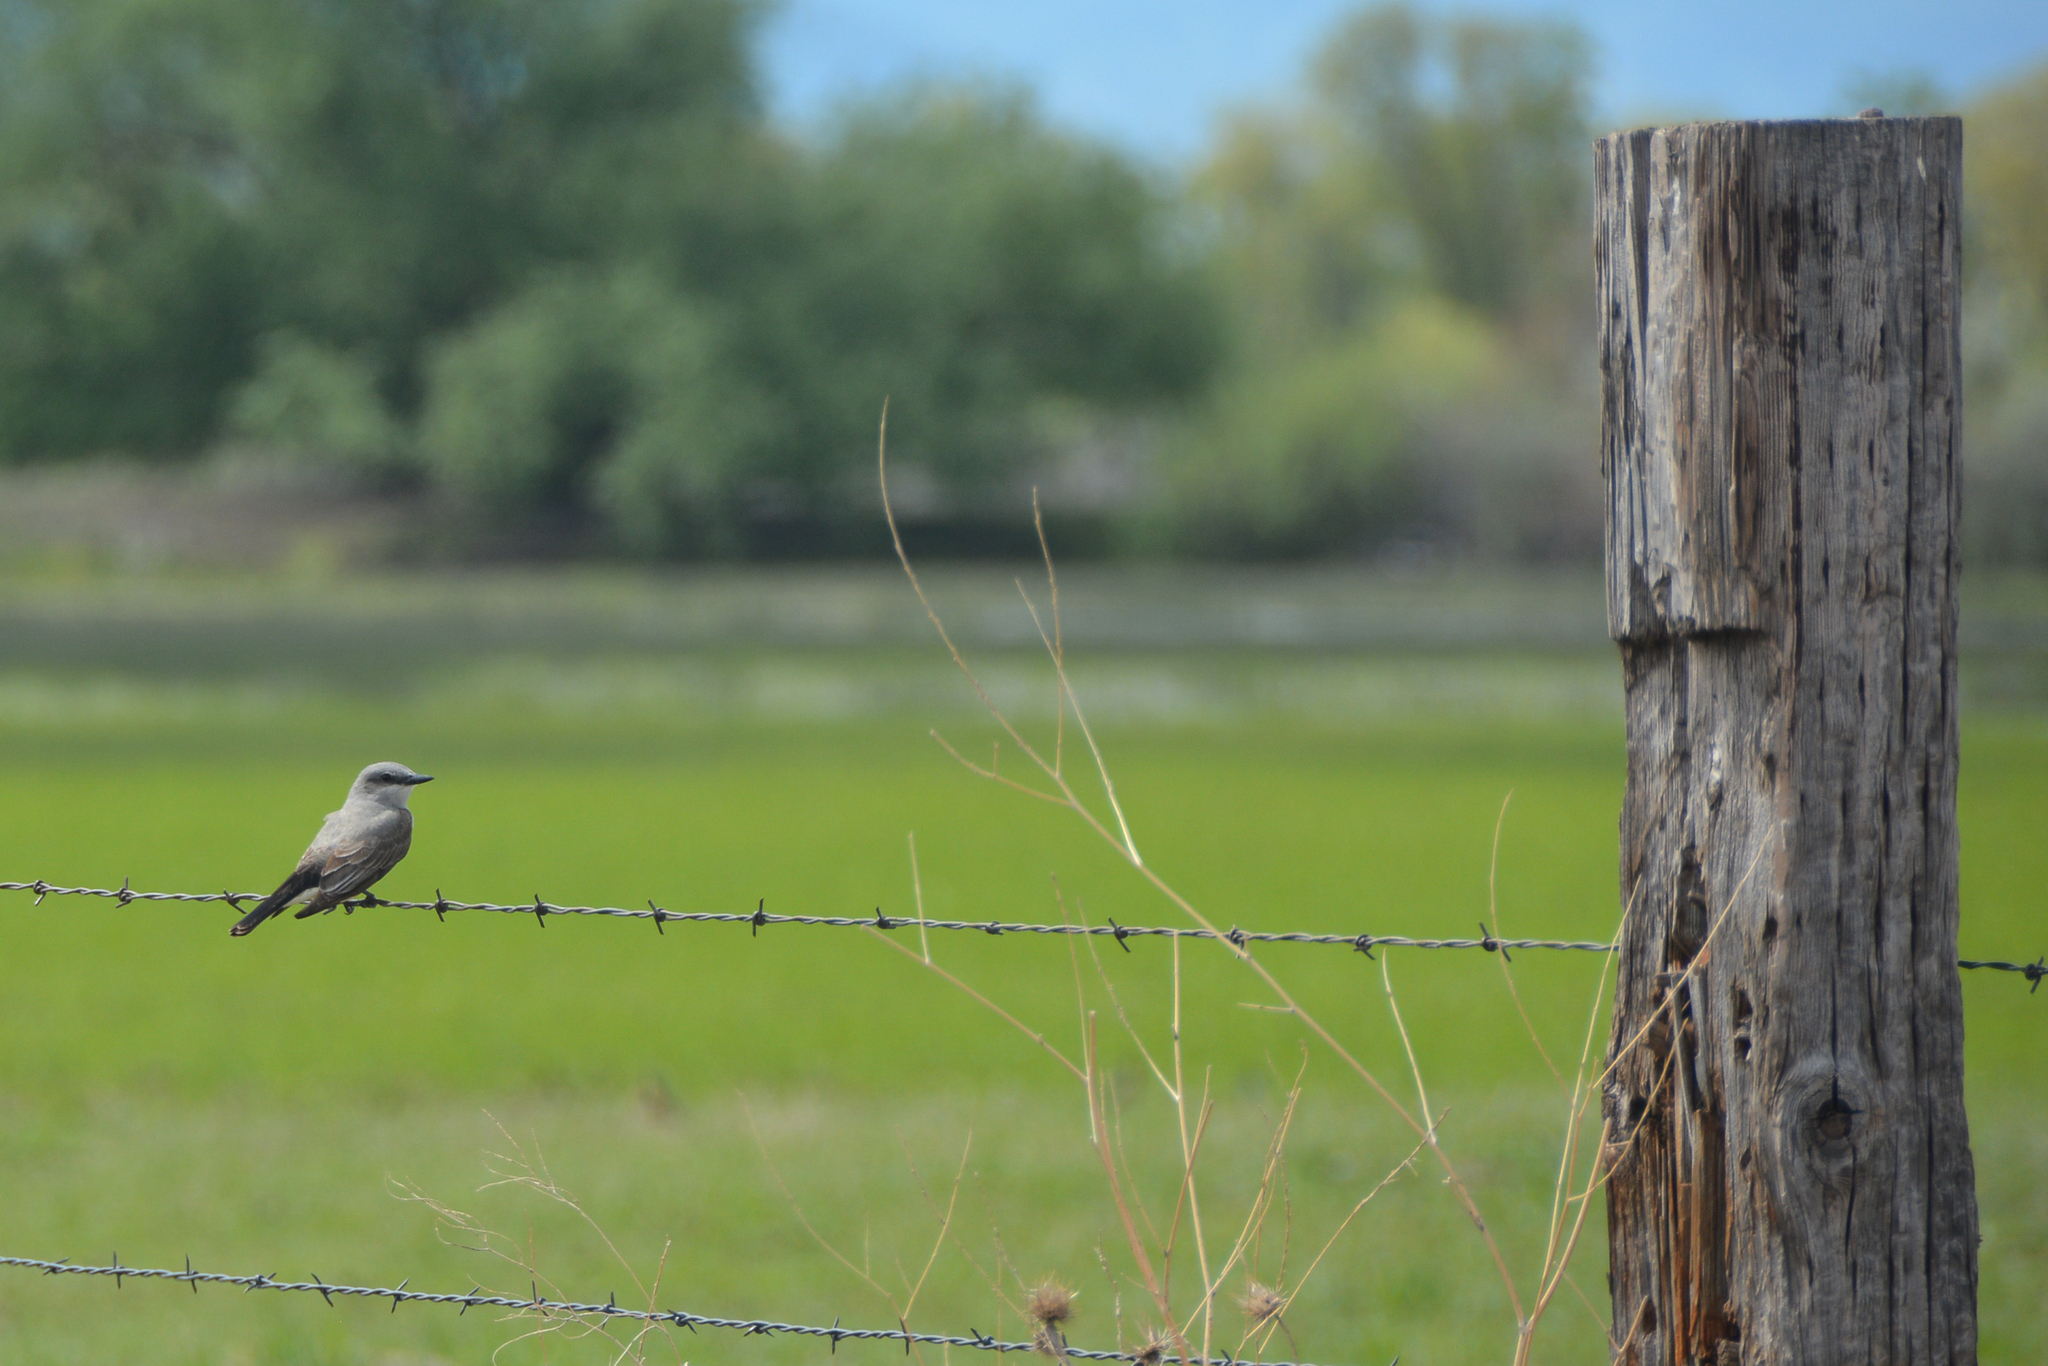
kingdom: Animalia
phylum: Chordata
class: Aves
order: Passeriformes
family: Tyrannidae
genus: Tyrannus
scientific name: Tyrannus verticalis
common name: Western kingbird
